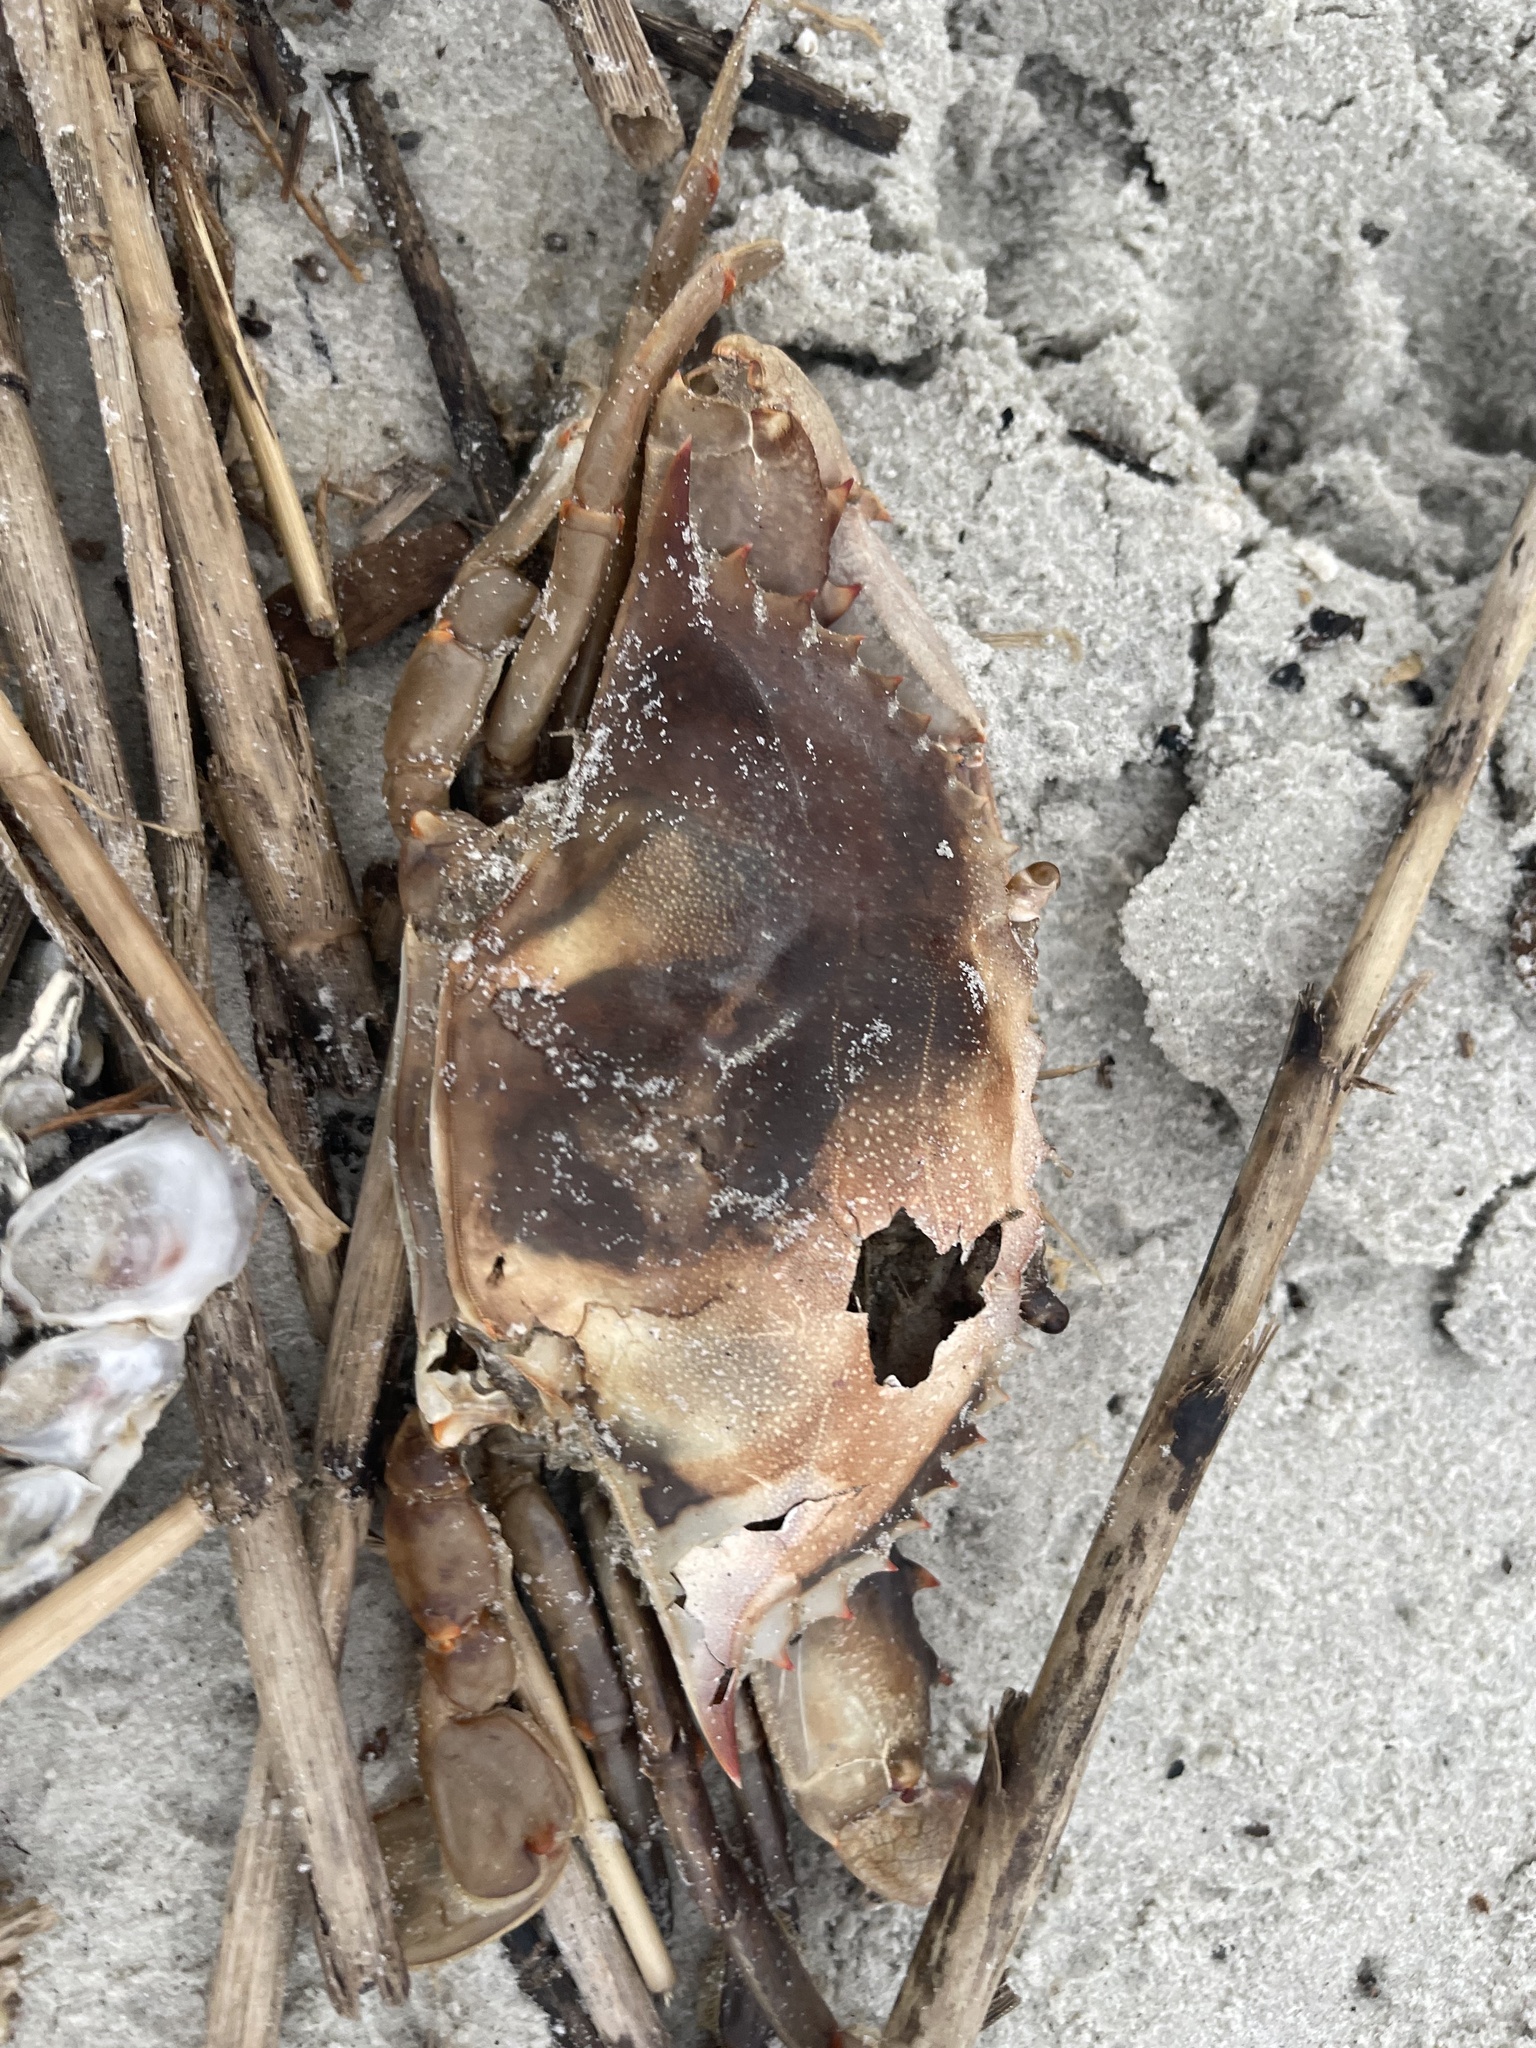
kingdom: Animalia
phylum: Arthropoda
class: Malacostraca
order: Decapoda
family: Portunidae
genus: Callinectes
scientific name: Callinectes sapidus
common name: Blue crab
